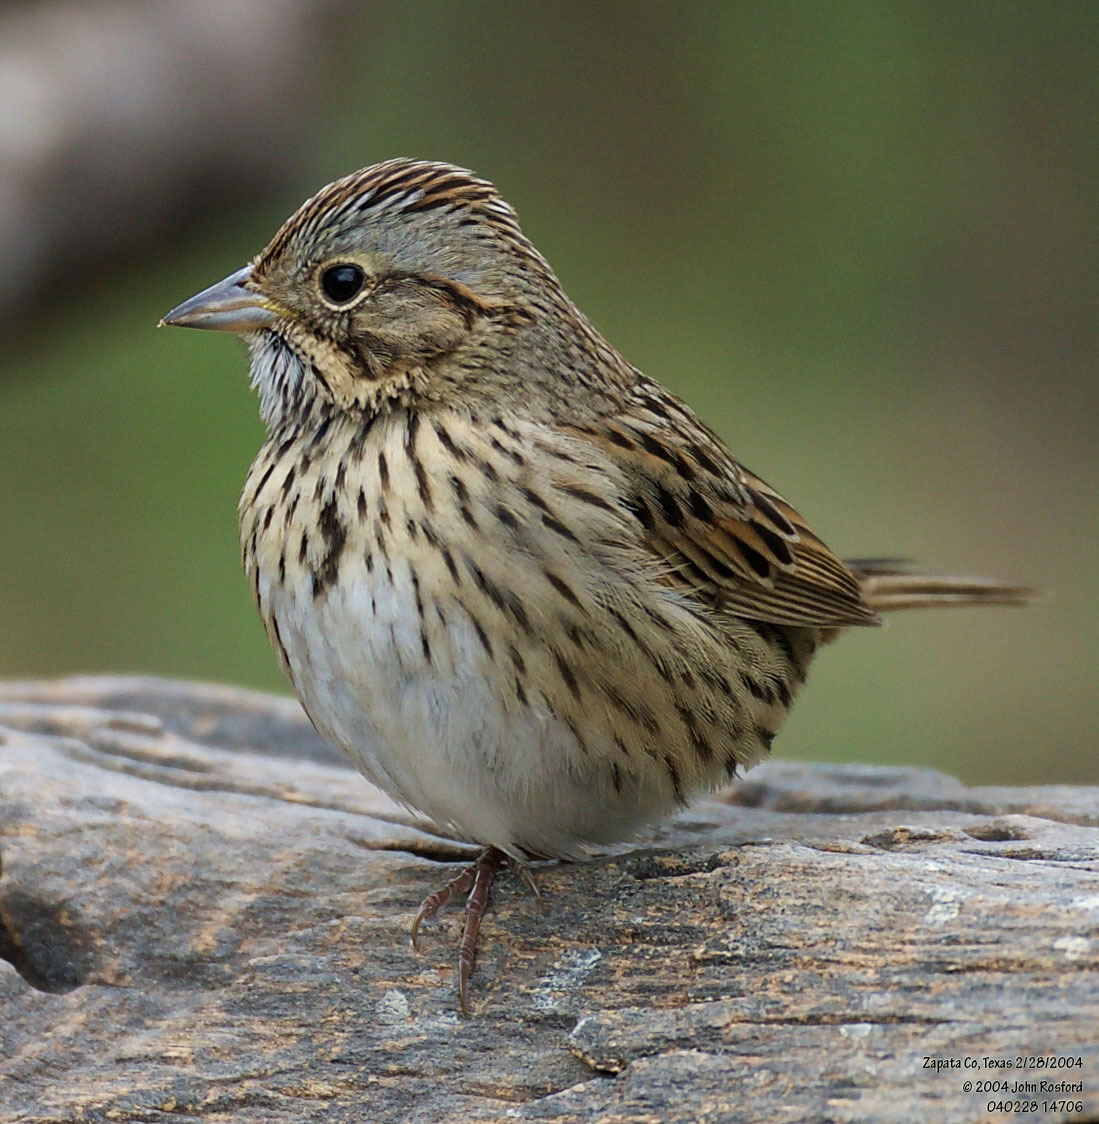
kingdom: Animalia
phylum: Chordata
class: Aves
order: Passeriformes
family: Passerellidae
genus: Melospiza
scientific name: Melospiza lincolnii
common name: Lincoln's sparrow
